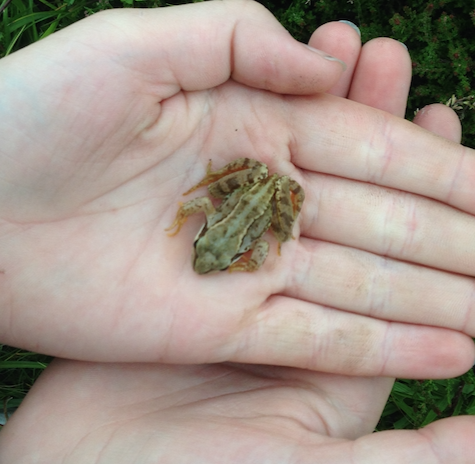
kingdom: Animalia
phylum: Chordata
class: Amphibia
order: Anura
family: Ranidae
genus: Rana
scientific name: Rana temporaria
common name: Common frog
